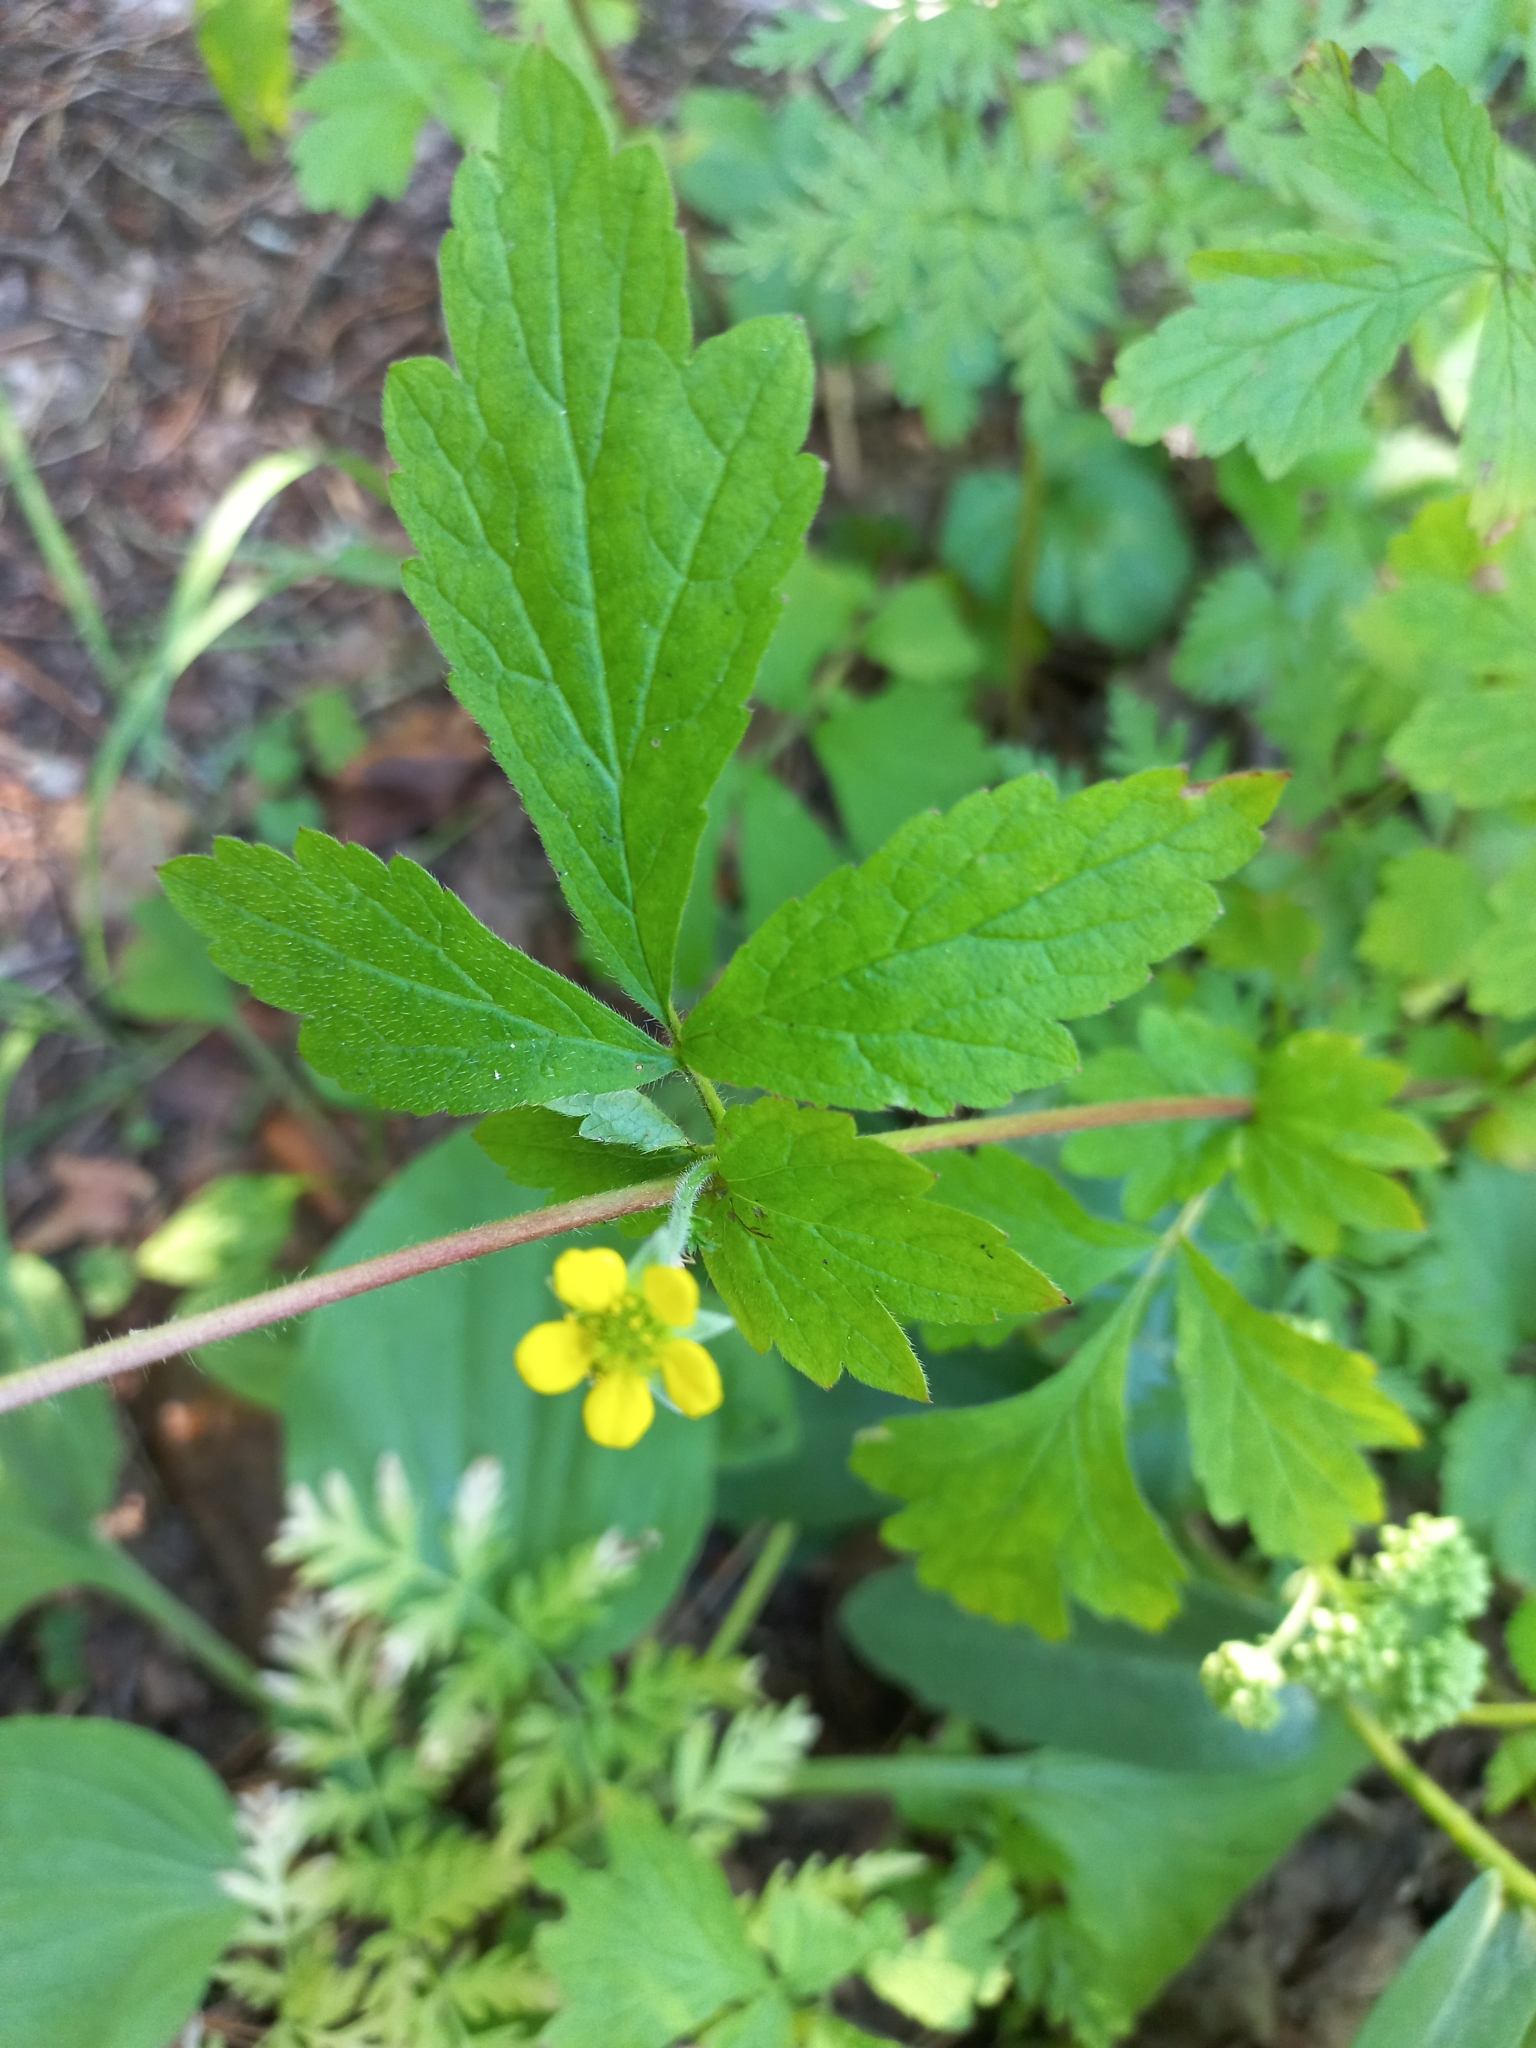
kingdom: Plantae
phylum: Tracheophyta
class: Magnoliopsida
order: Rosales
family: Rosaceae
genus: Geum
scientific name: Geum urbanum
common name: Wood avens
